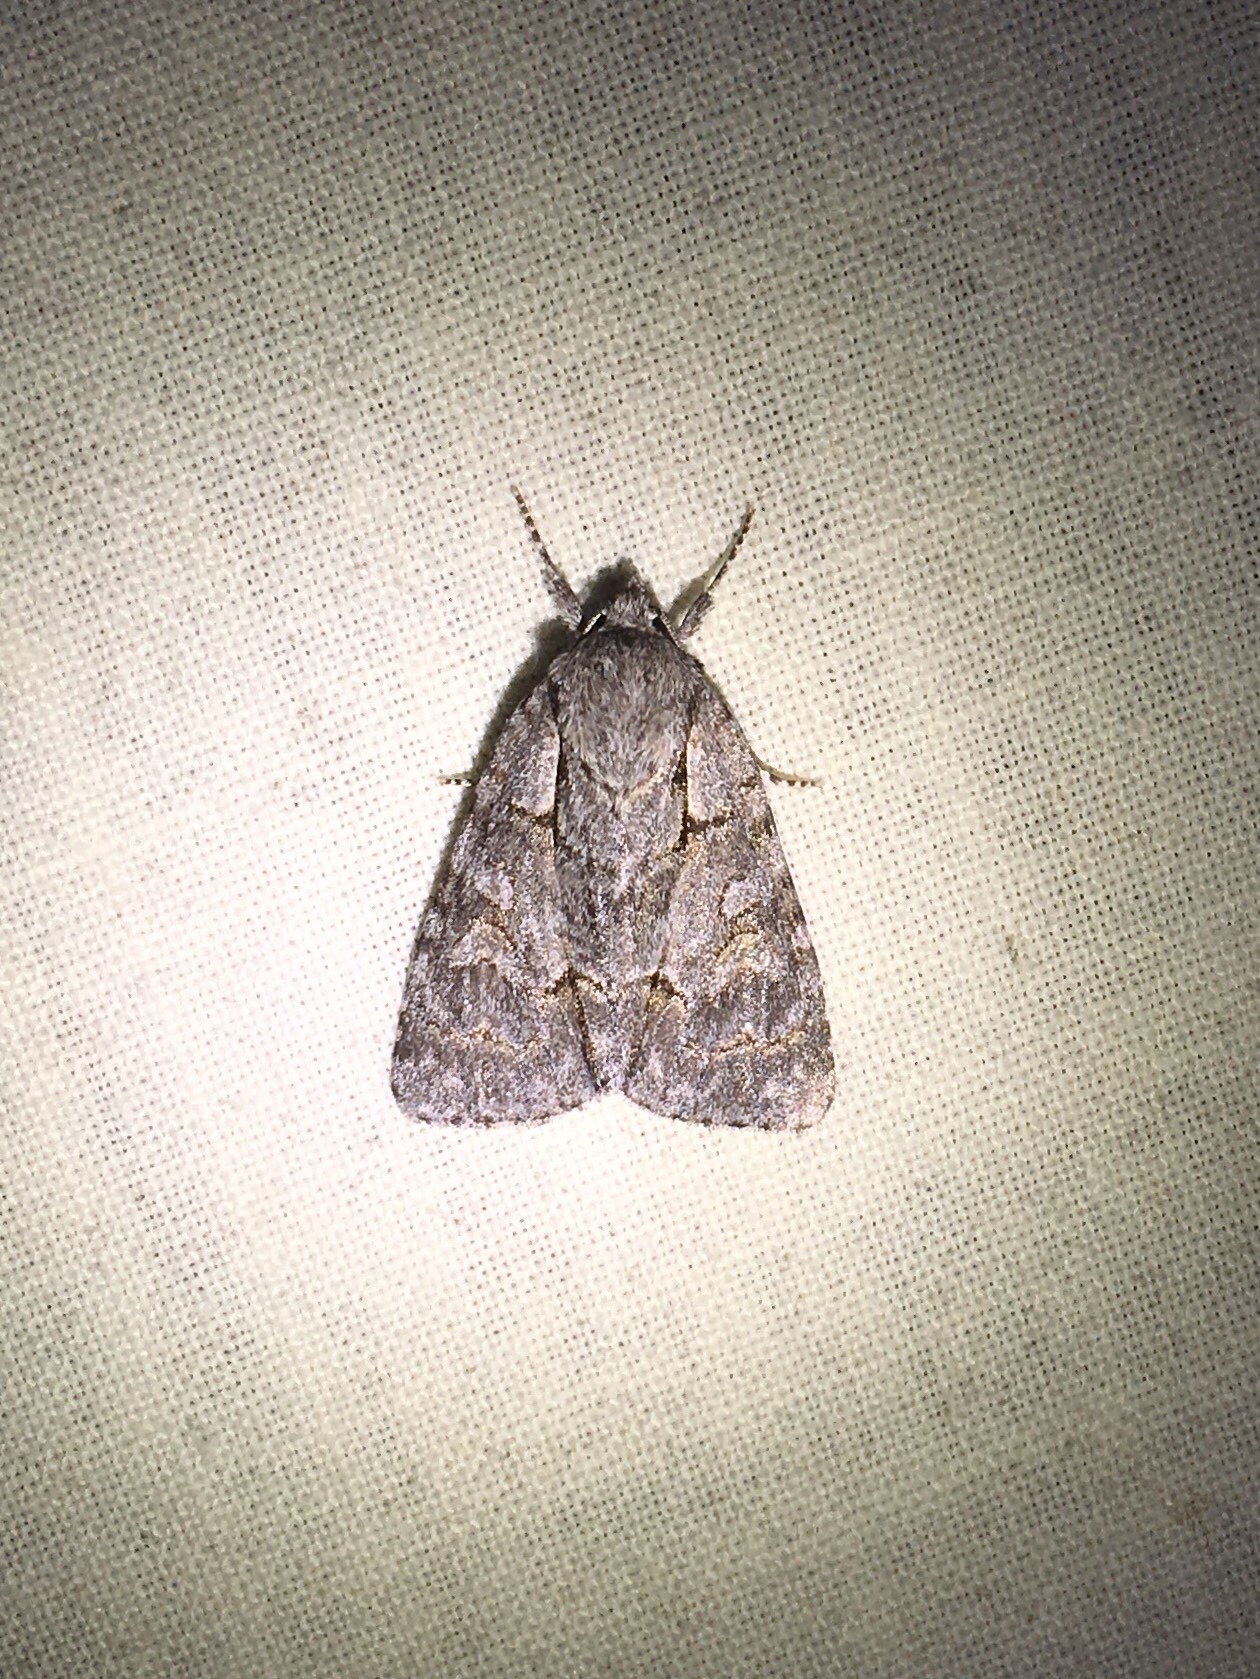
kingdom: Animalia
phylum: Arthropoda
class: Insecta
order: Lepidoptera
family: Noctuidae
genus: Acronicta
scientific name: Acronicta grisea
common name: Gray dagger
